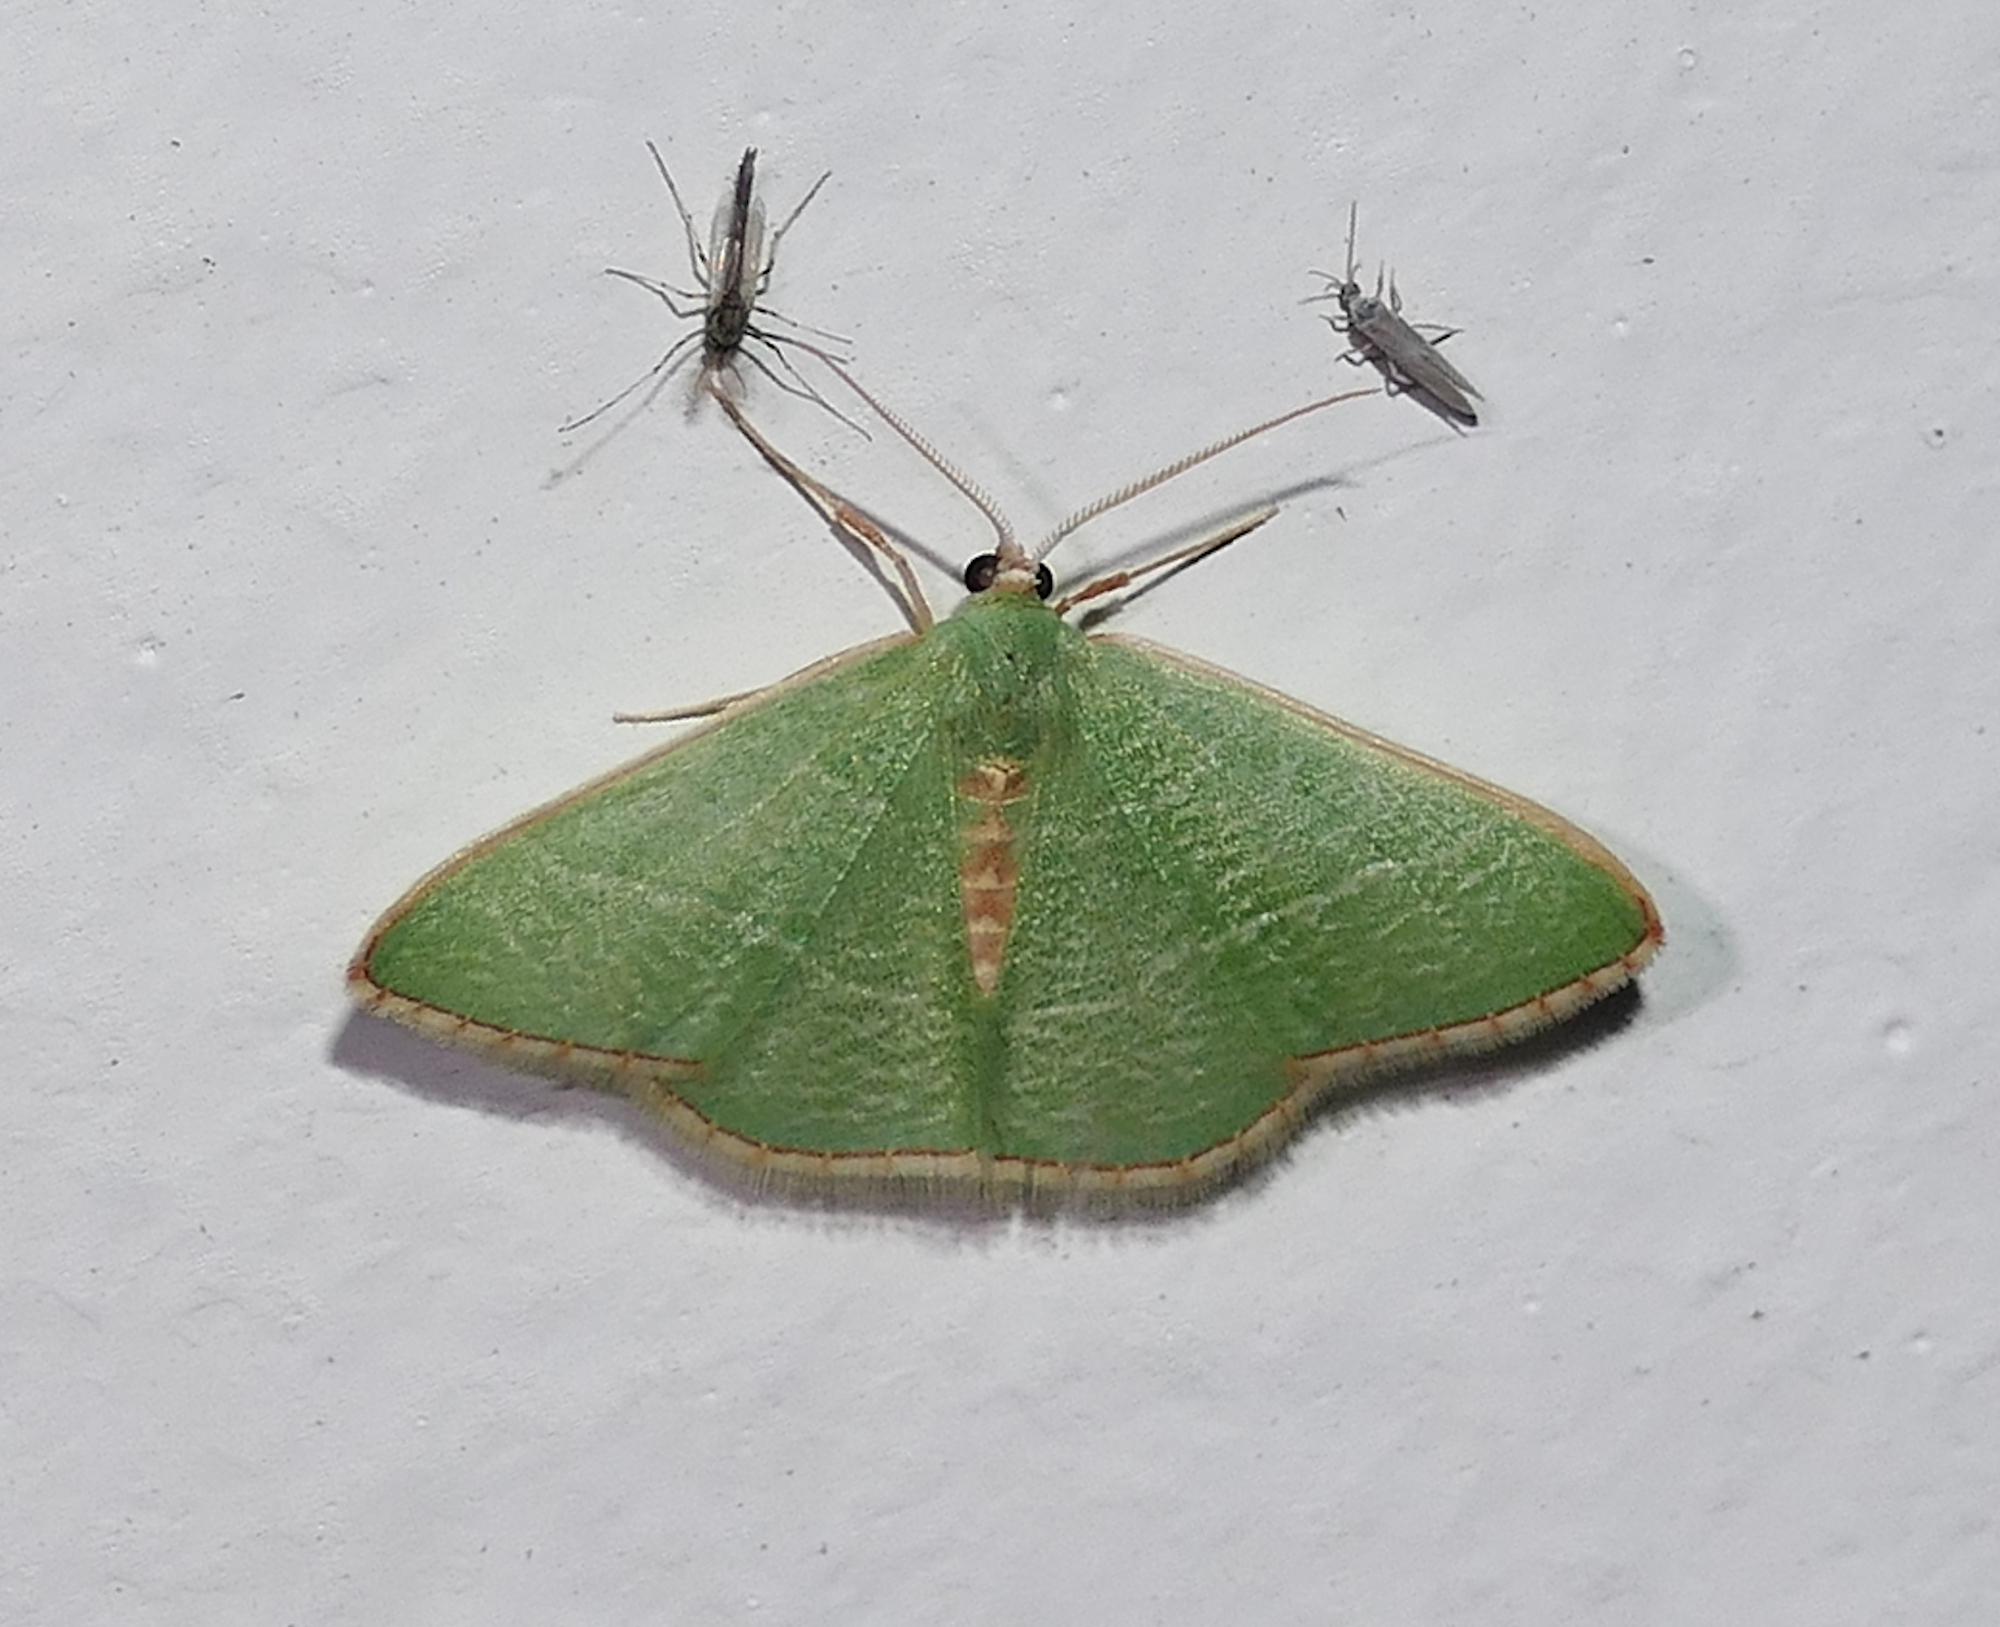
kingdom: Animalia
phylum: Arthropoda
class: Insecta
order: Lepidoptera
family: Geometridae
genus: Nemoria
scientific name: Nemoria festaria
